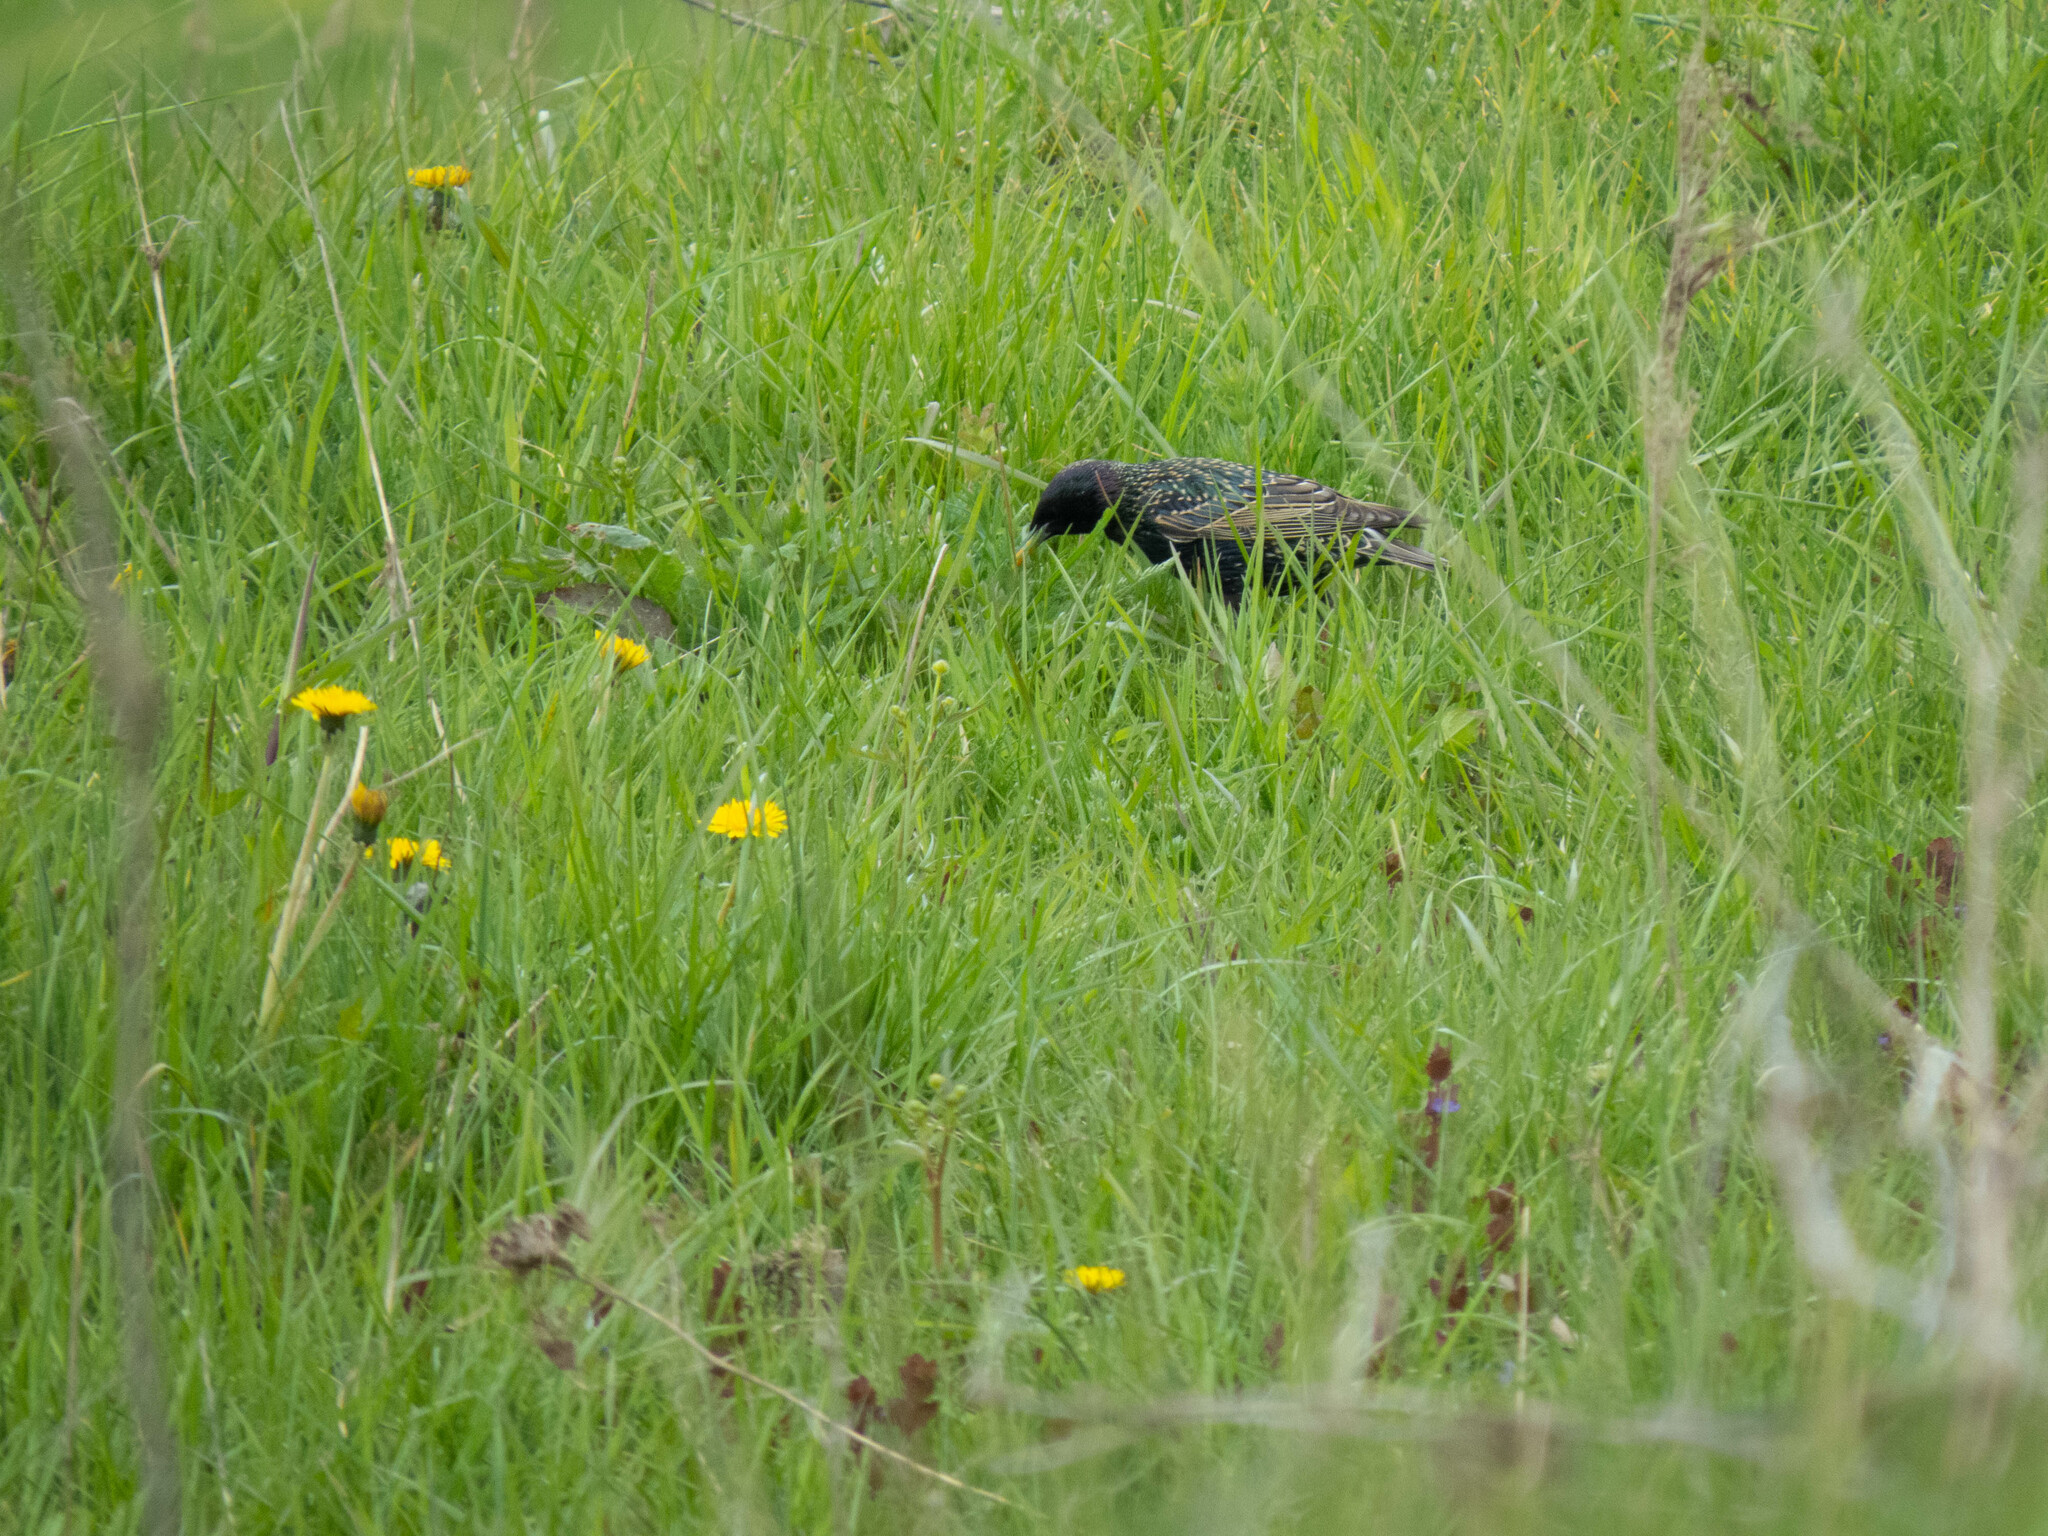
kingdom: Animalia
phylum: Chordata
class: Aves
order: Passeriformes
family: Sturnidae
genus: Sturnus
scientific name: Sturnus vulgaris
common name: Common starling
